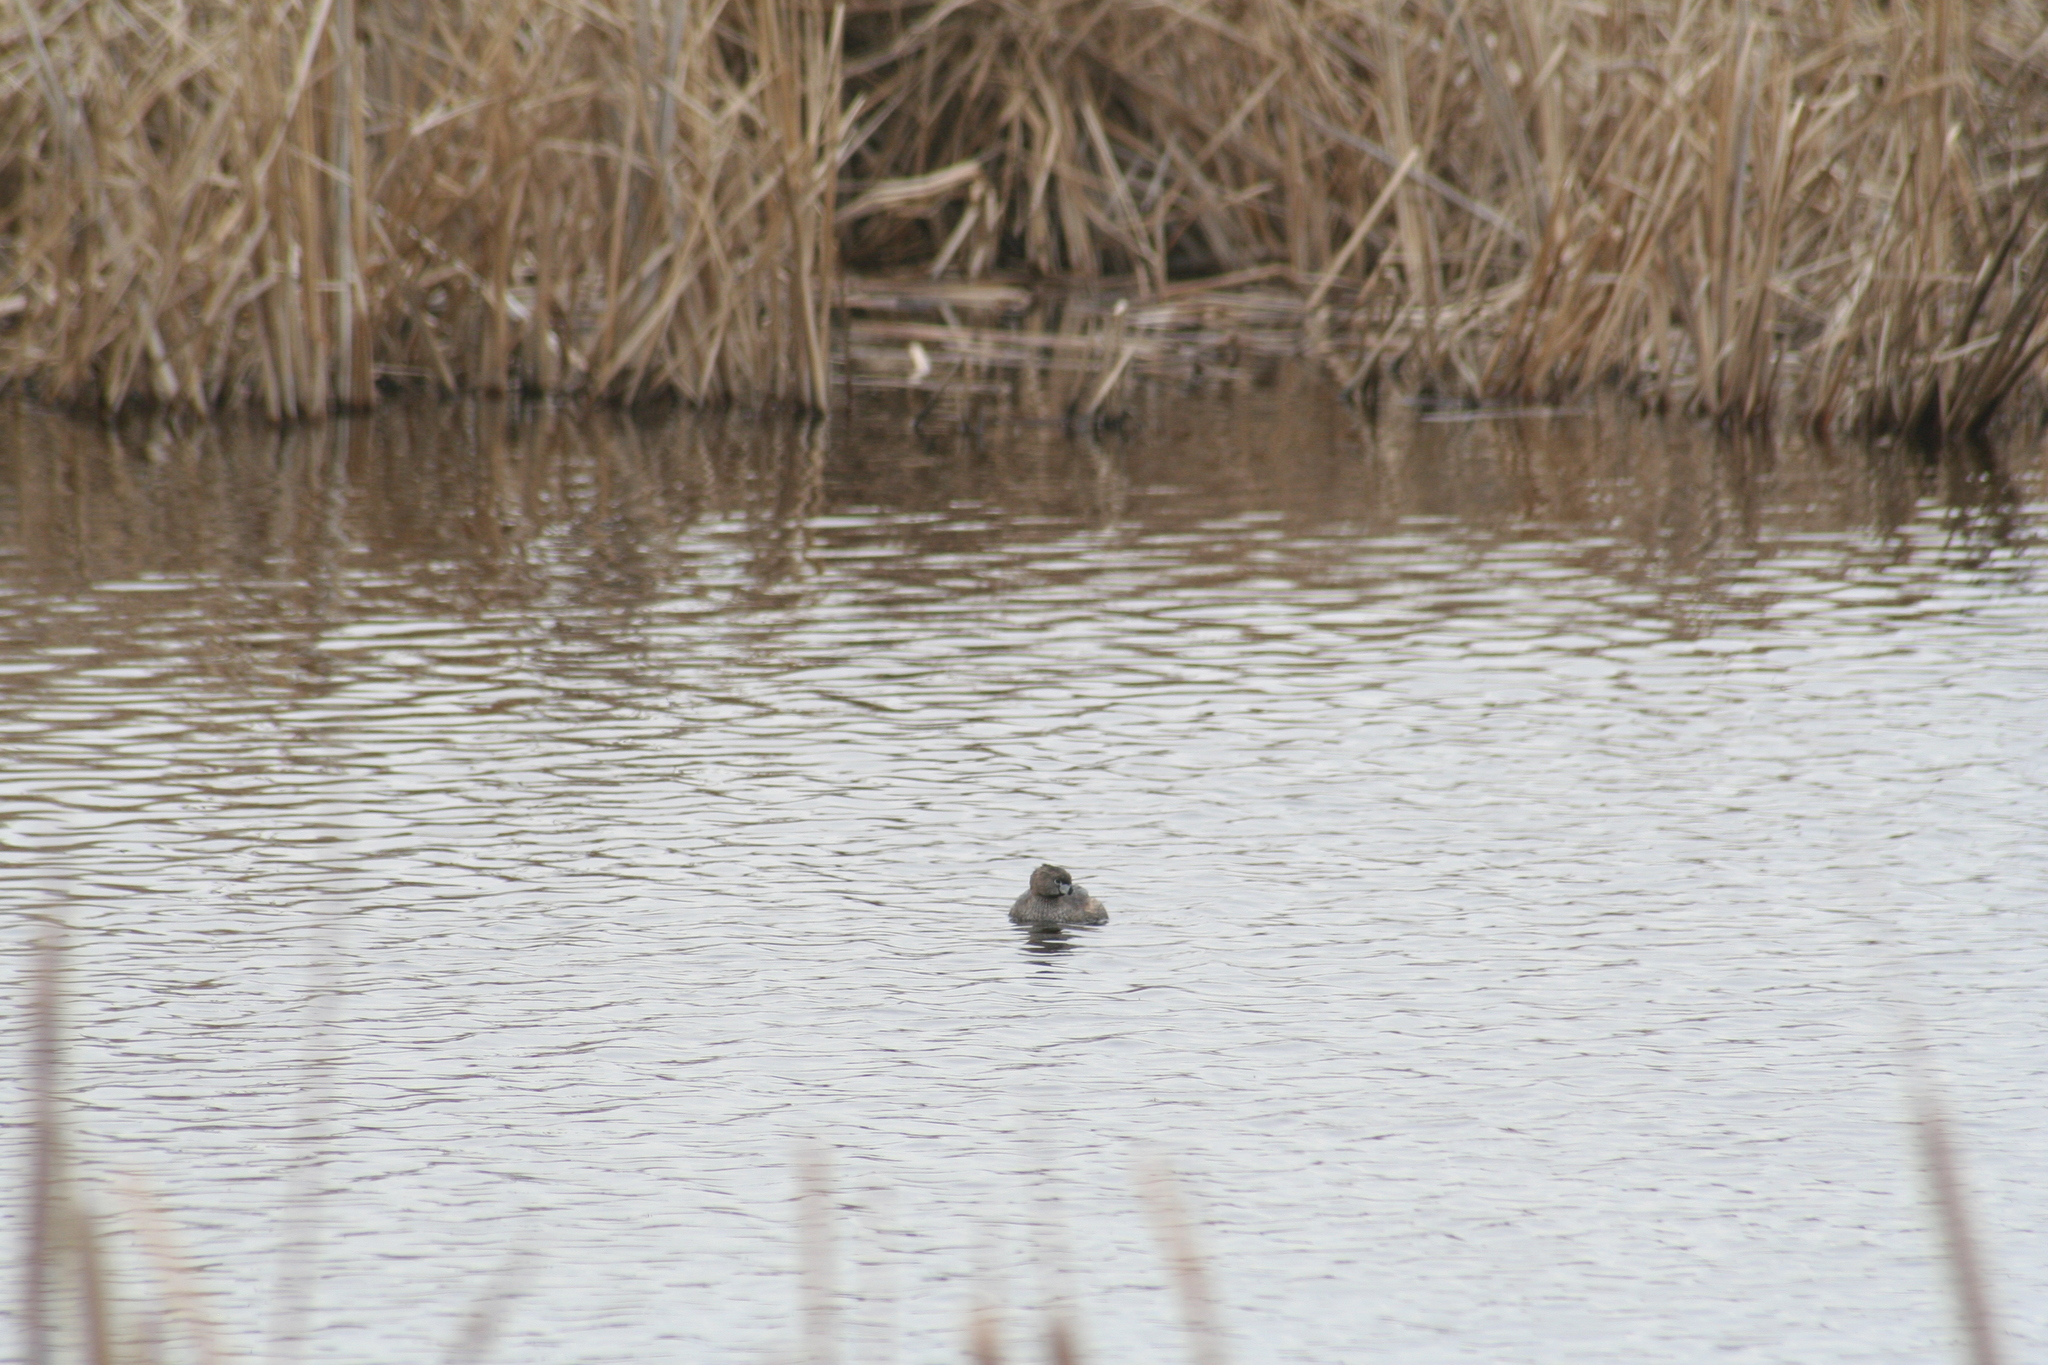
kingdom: Animalia
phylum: Chordata
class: Aves
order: Podicipediformes
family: Podicipedidae
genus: Podilymbus
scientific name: Podilymbus podiceps
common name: Pied-billed grebe
